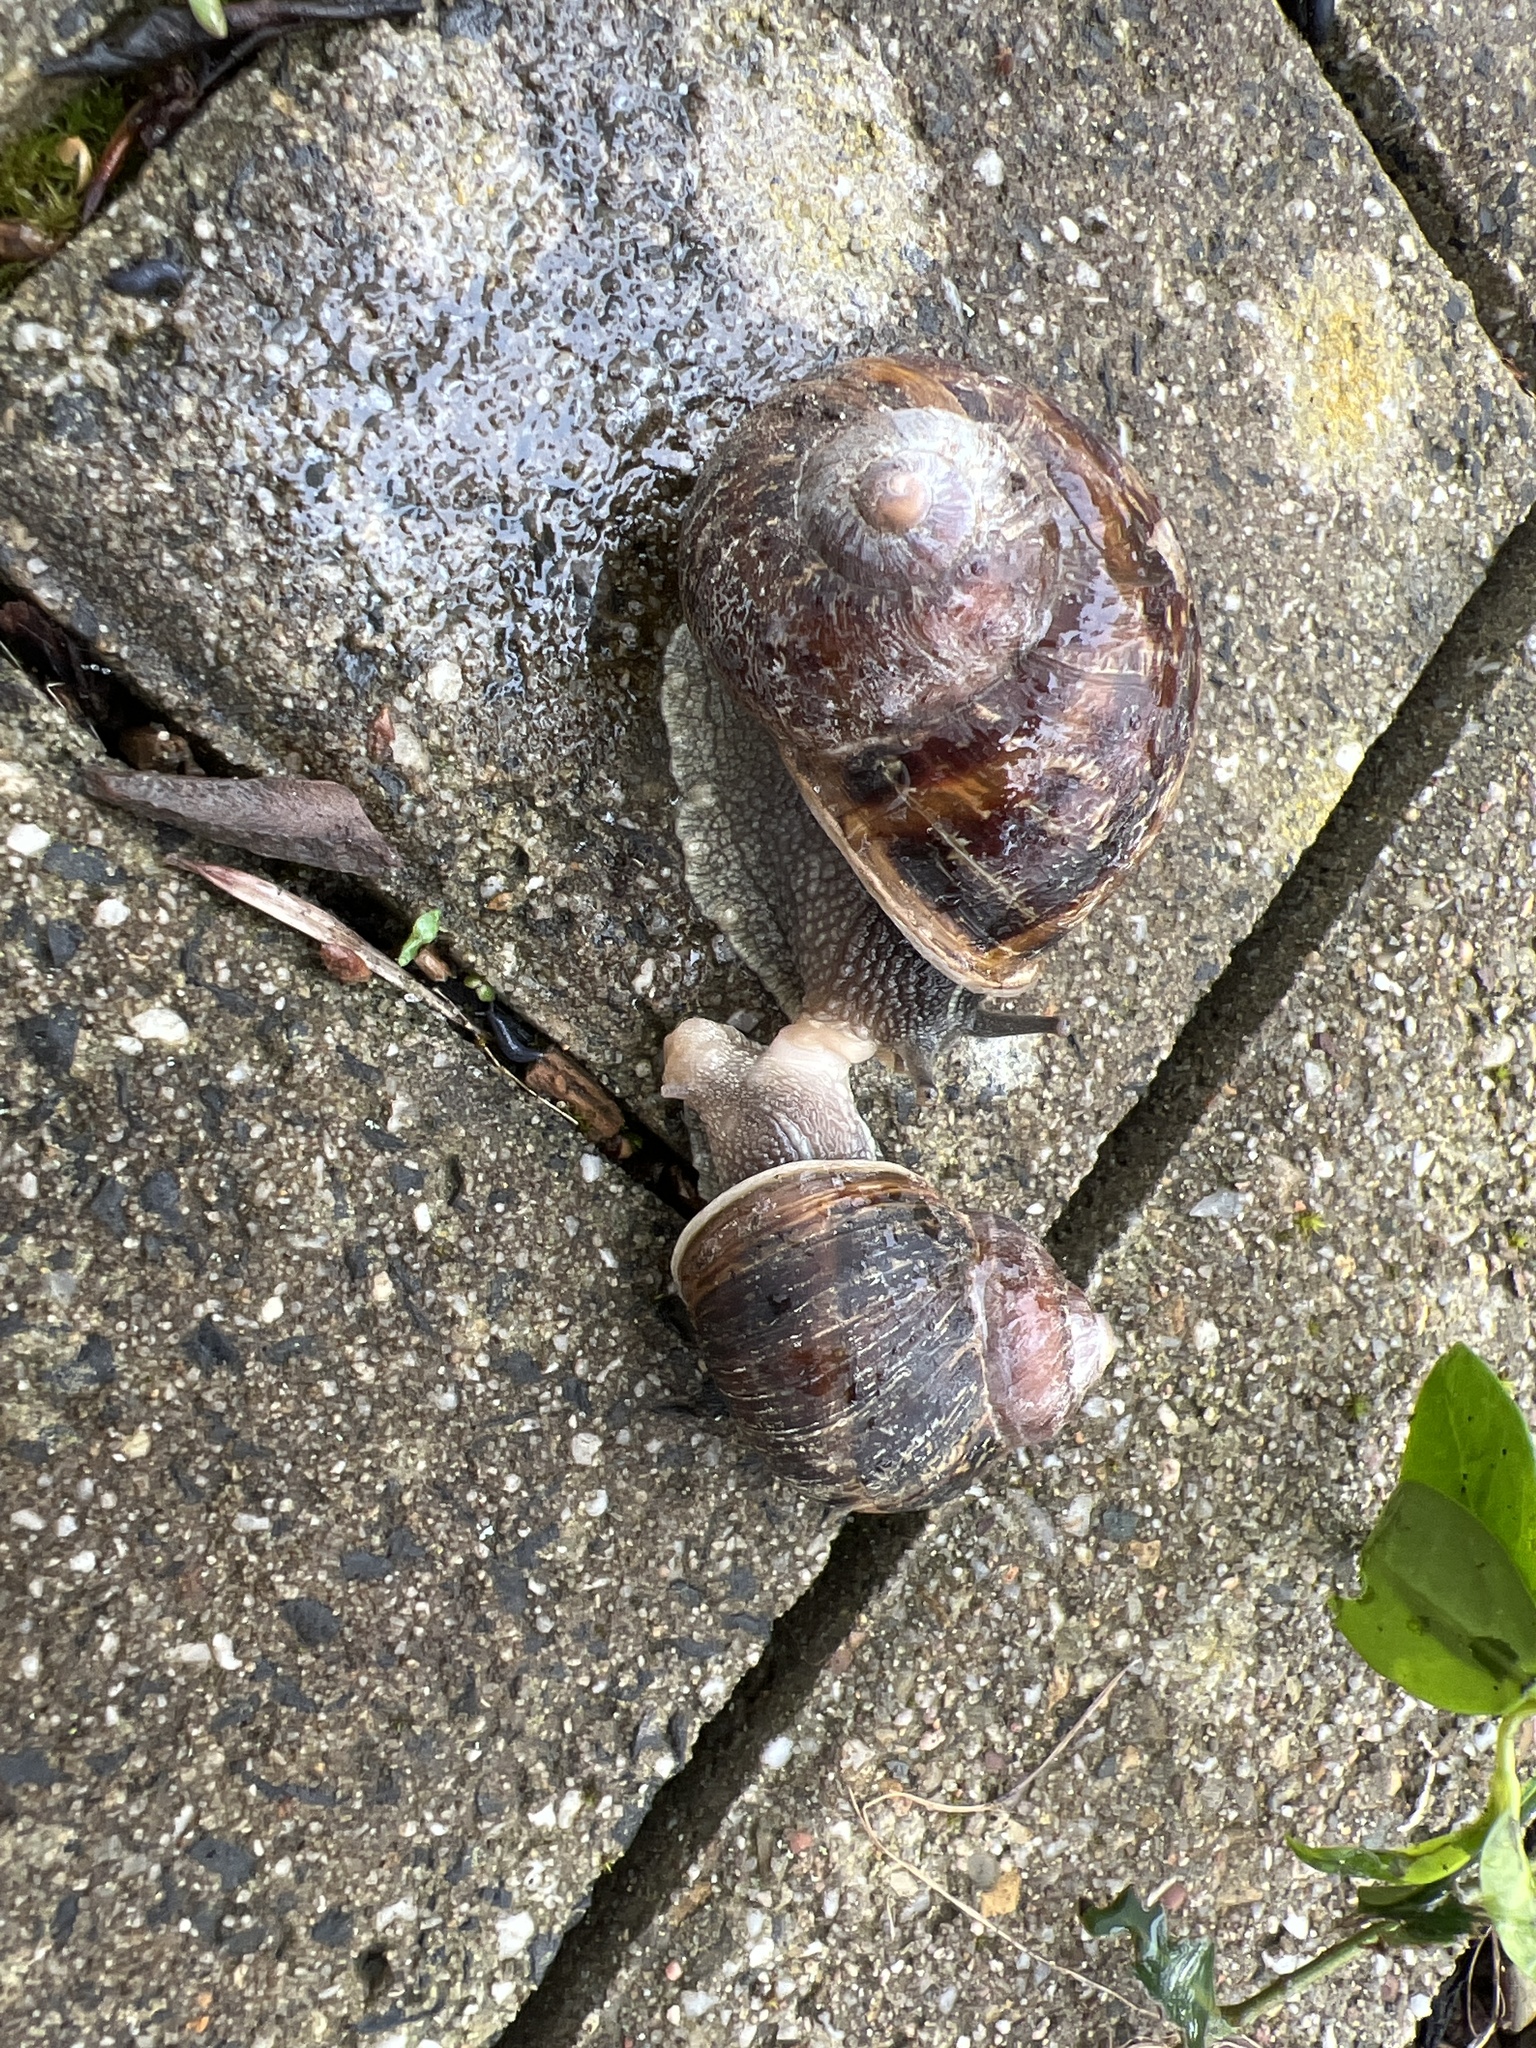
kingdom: Animalia
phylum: Mollusca
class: Gastropoda
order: Stylommatophora
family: Helicidae
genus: Cornu
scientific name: Cornu aspersum
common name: Brown garden snail
